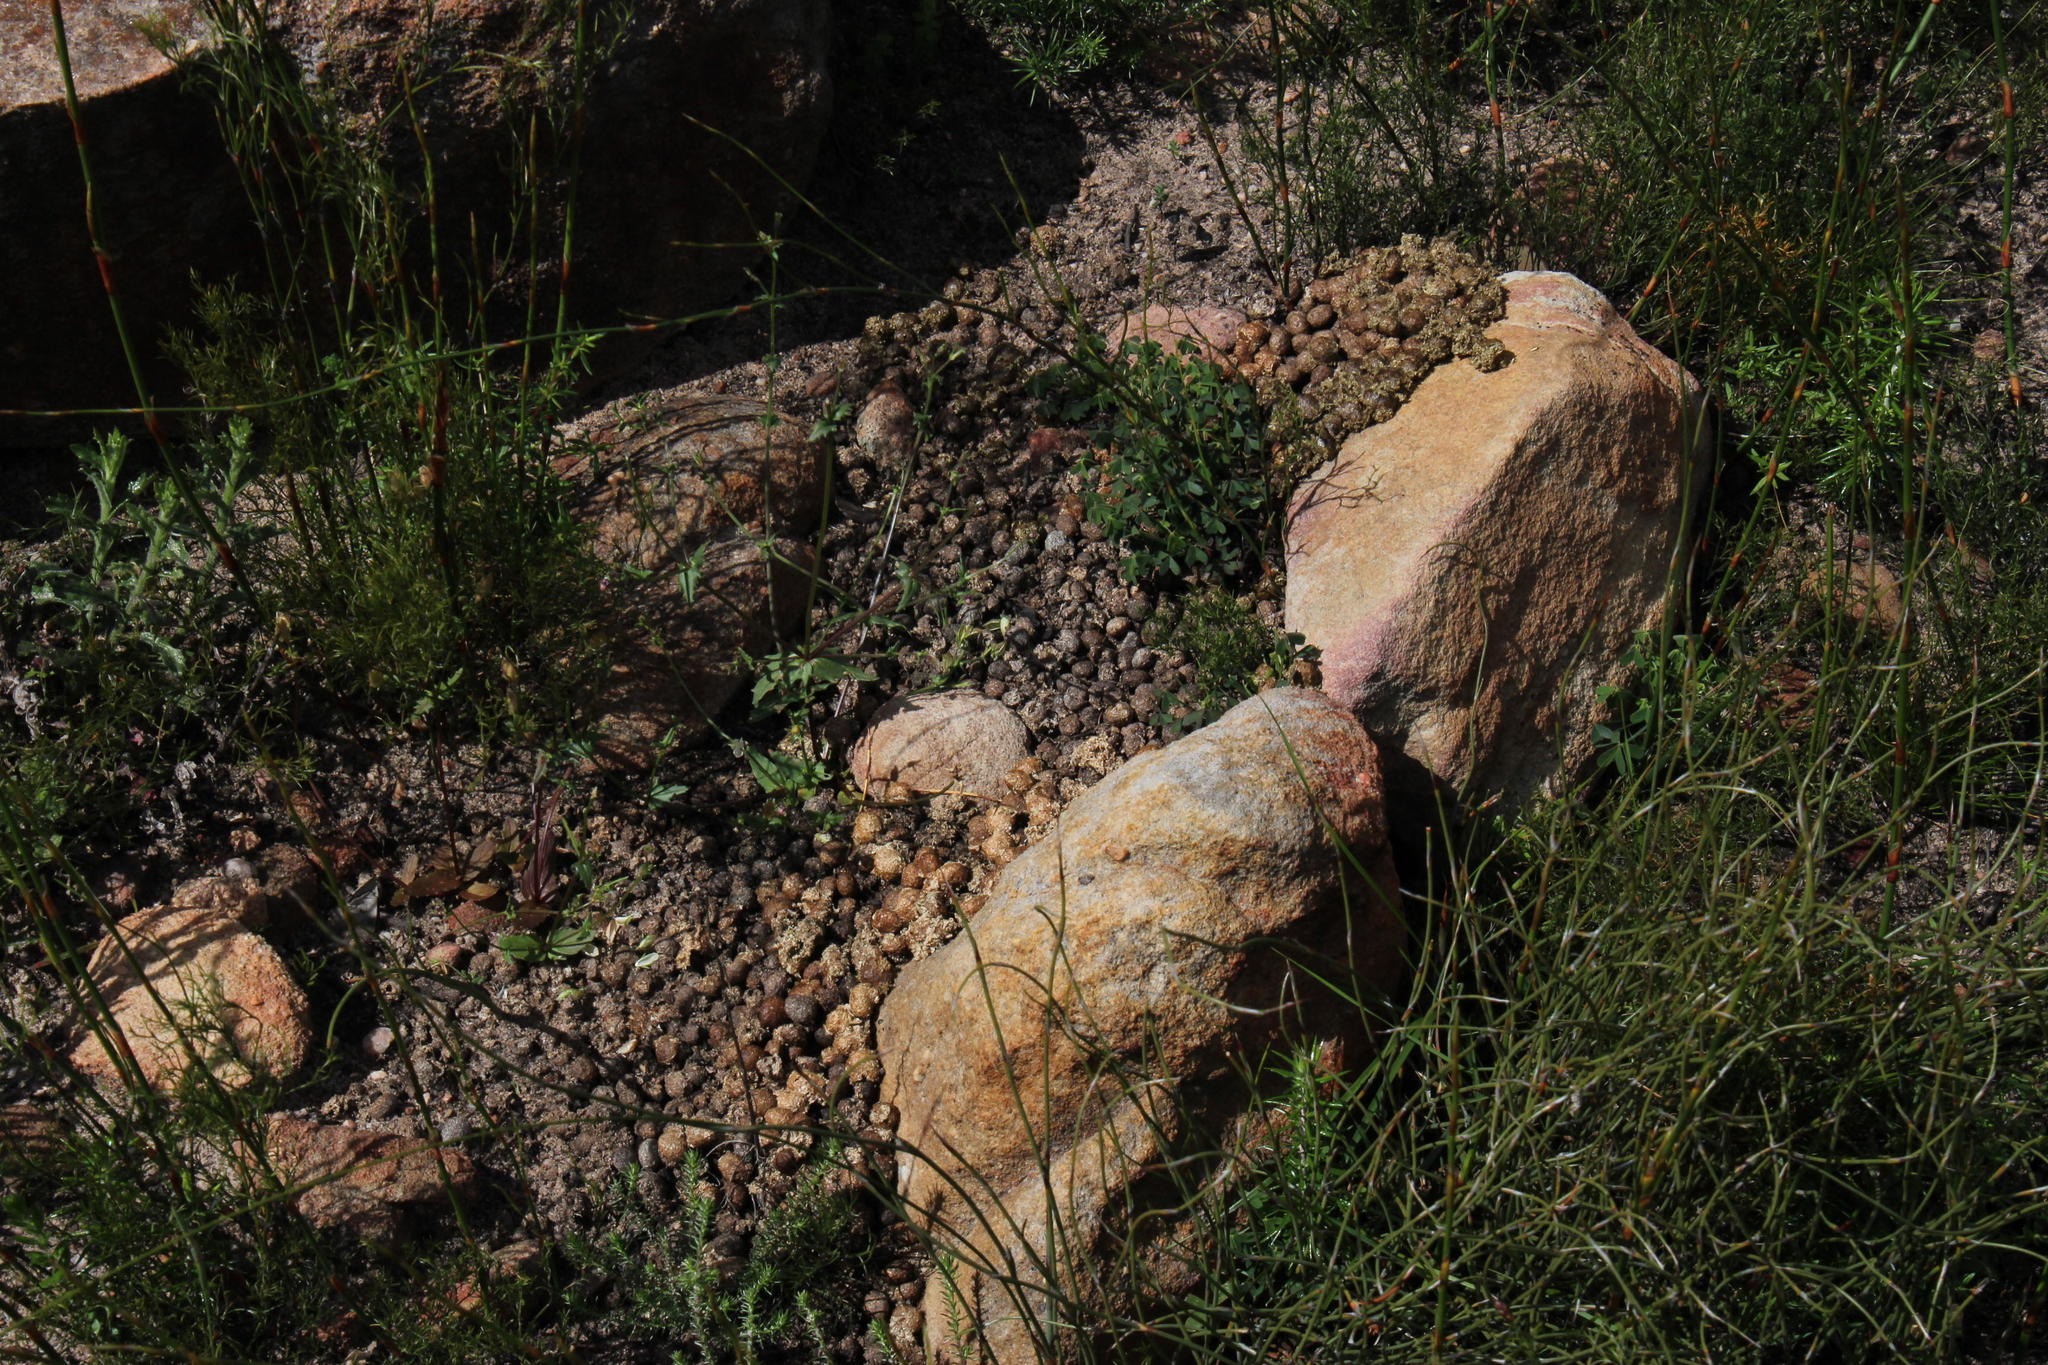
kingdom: Animalia
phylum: Chordata
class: Mammalia
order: Lagomorpha
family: Leporidae
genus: Pronolagus
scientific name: Pronolagus saundersiae
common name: Hewitt's red rock hare
